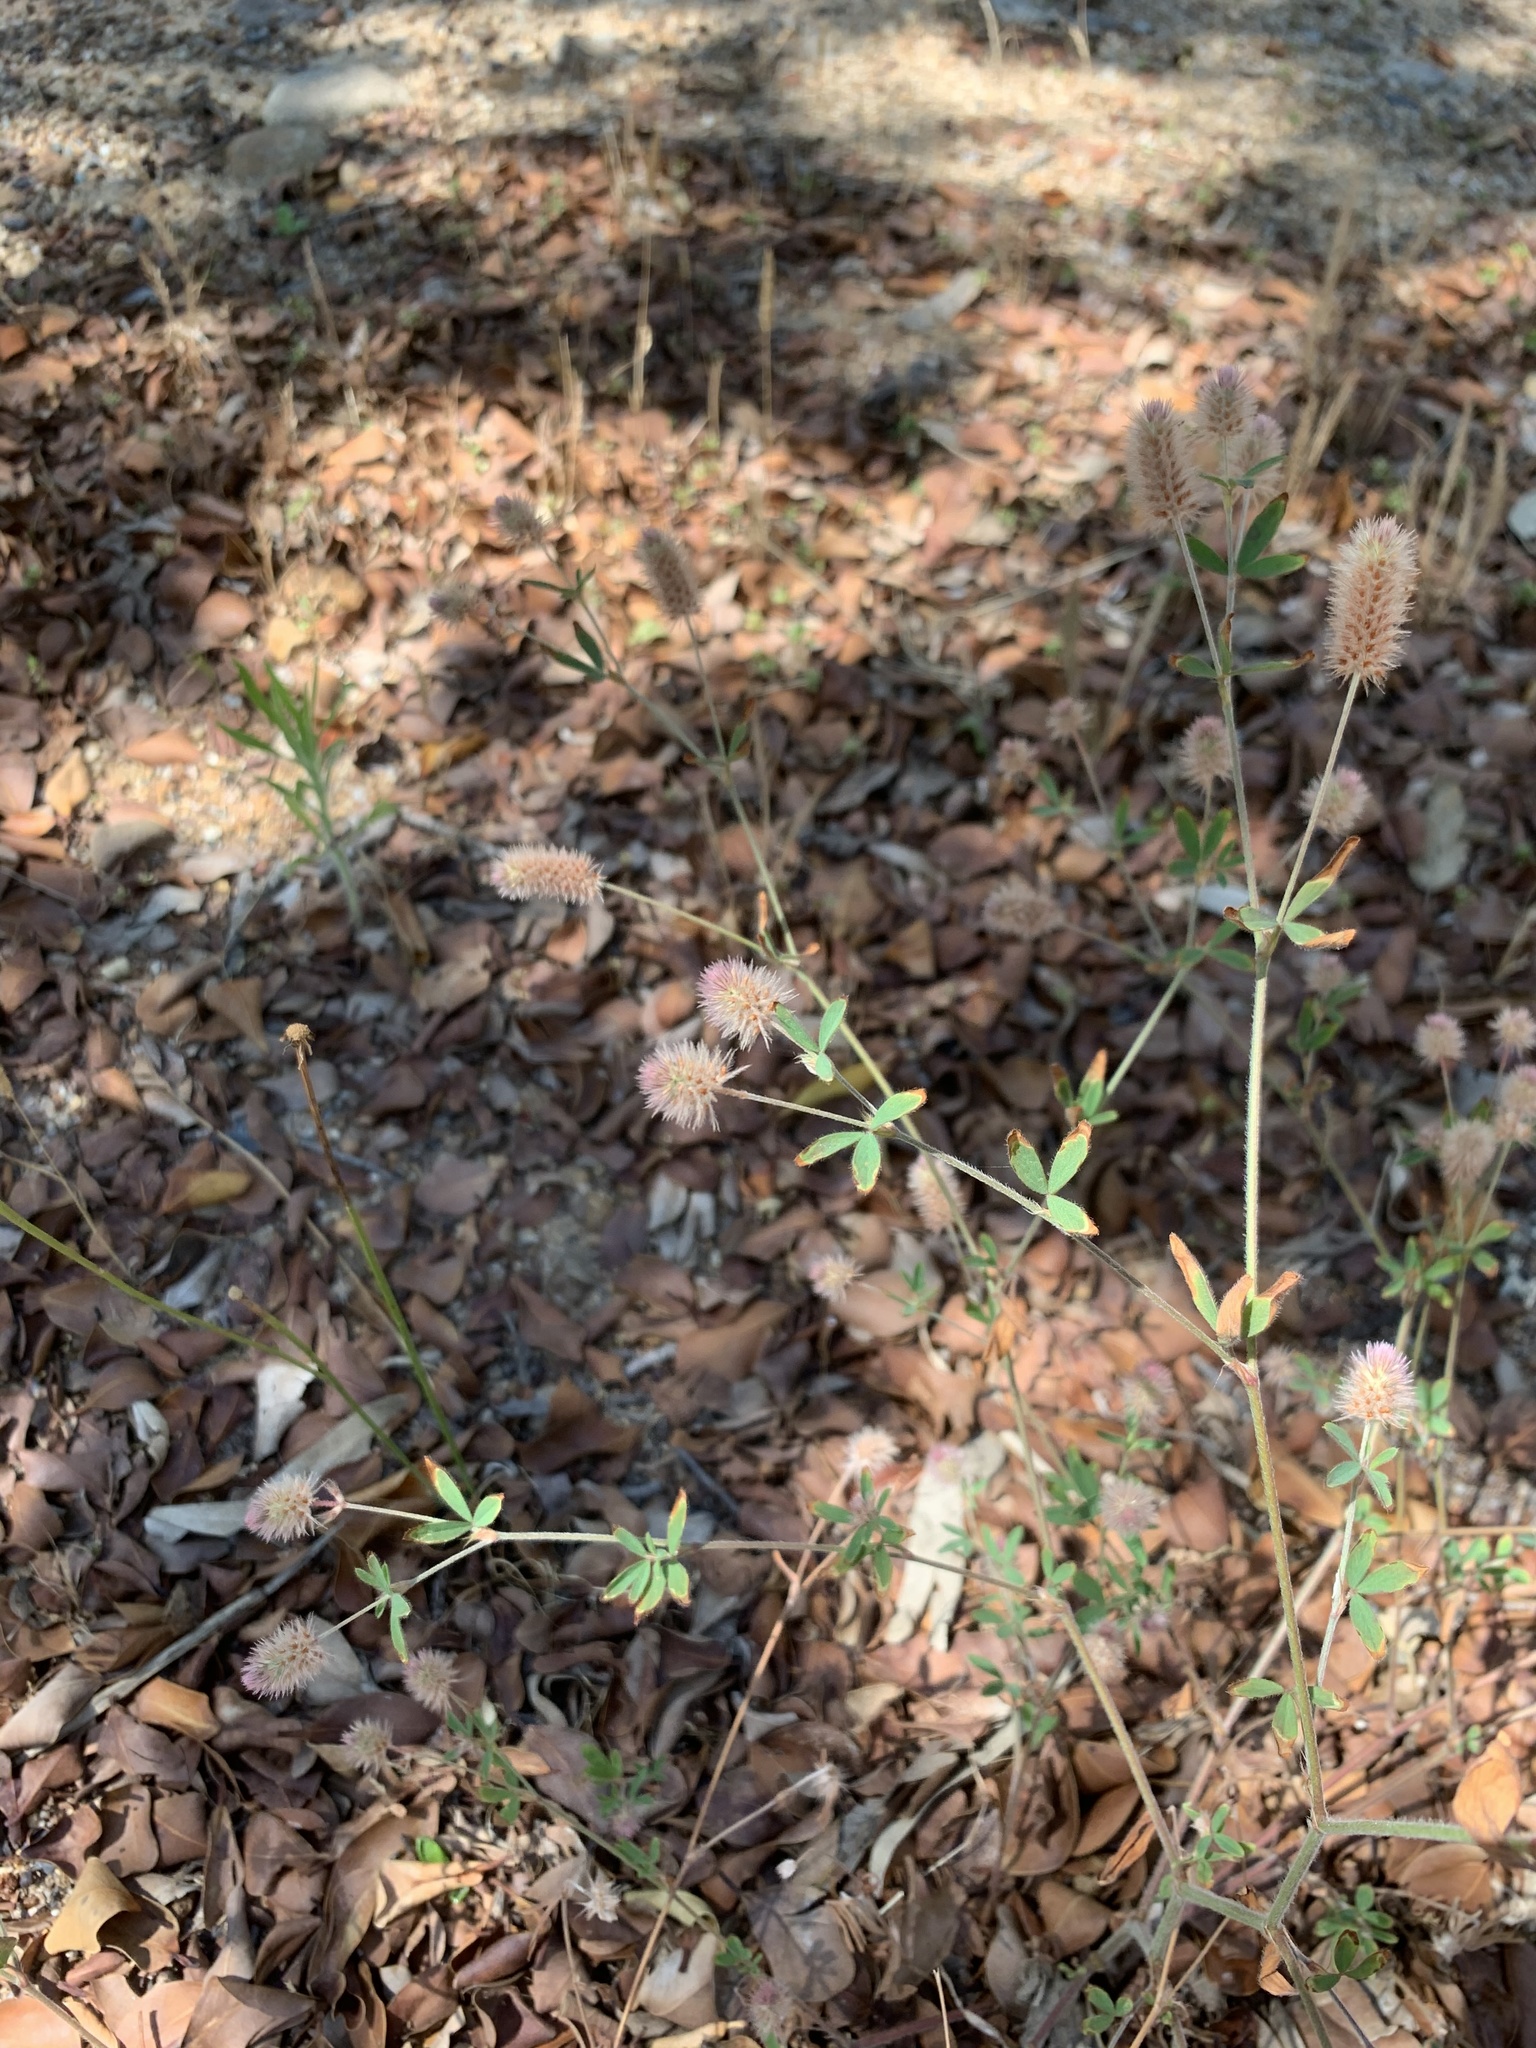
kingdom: Plantae
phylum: Tracheophyta
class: Magnoliopsida
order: Fabales
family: Fabaceae
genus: Trifolium
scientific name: Trifolium arvense
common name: Hare's-foot clover
